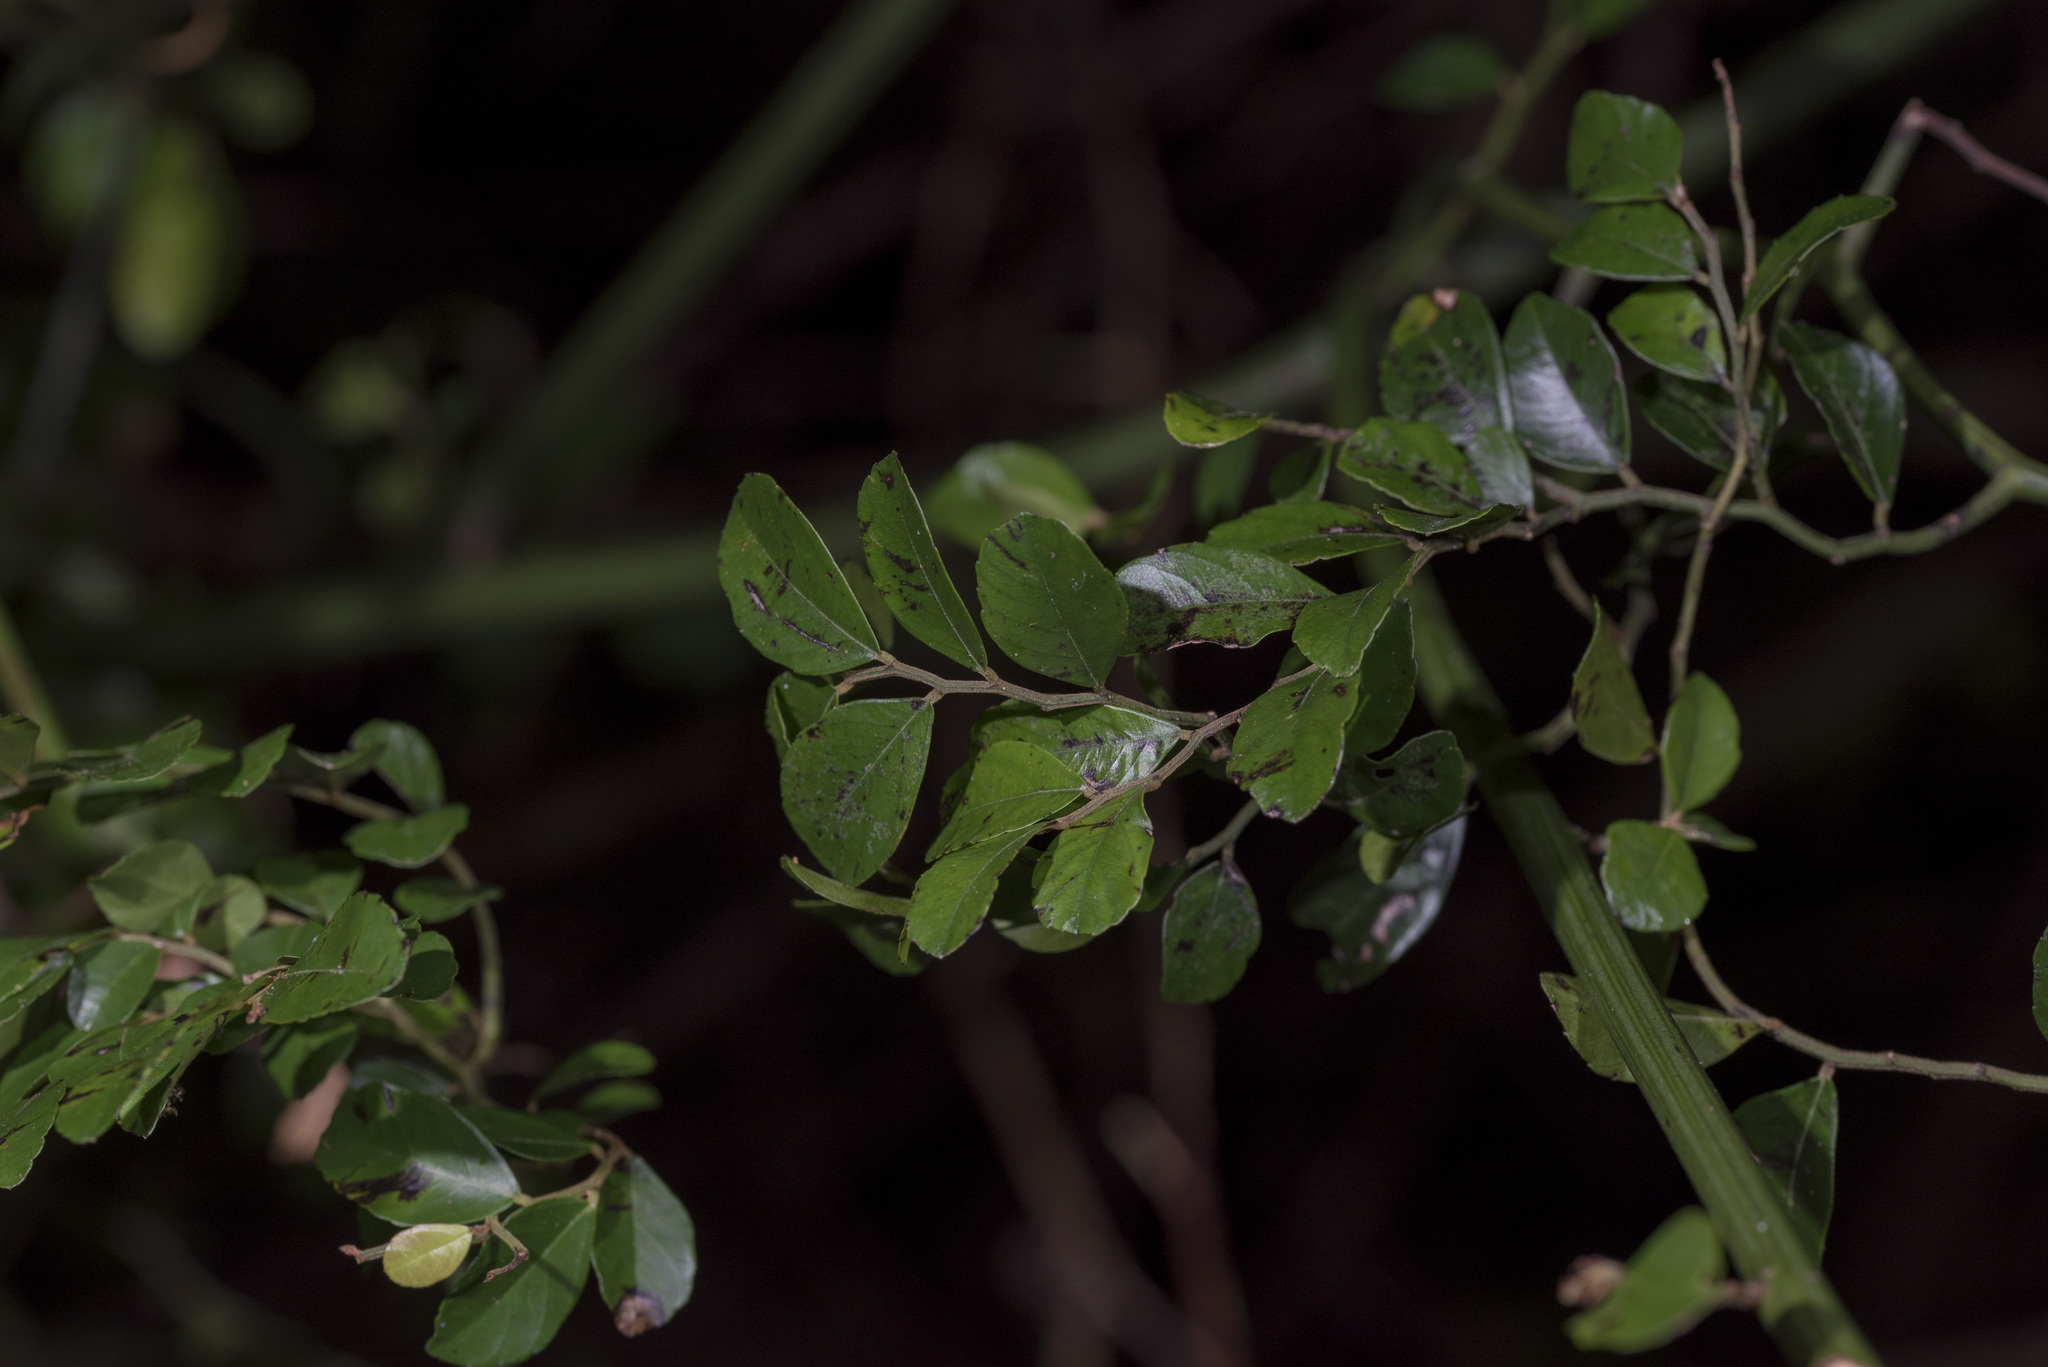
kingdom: Plantae
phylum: Tracheophyta
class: Magnoliopsida
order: Rosales
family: Rhamnaceae
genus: Ventilago
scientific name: Ventilago elegans
